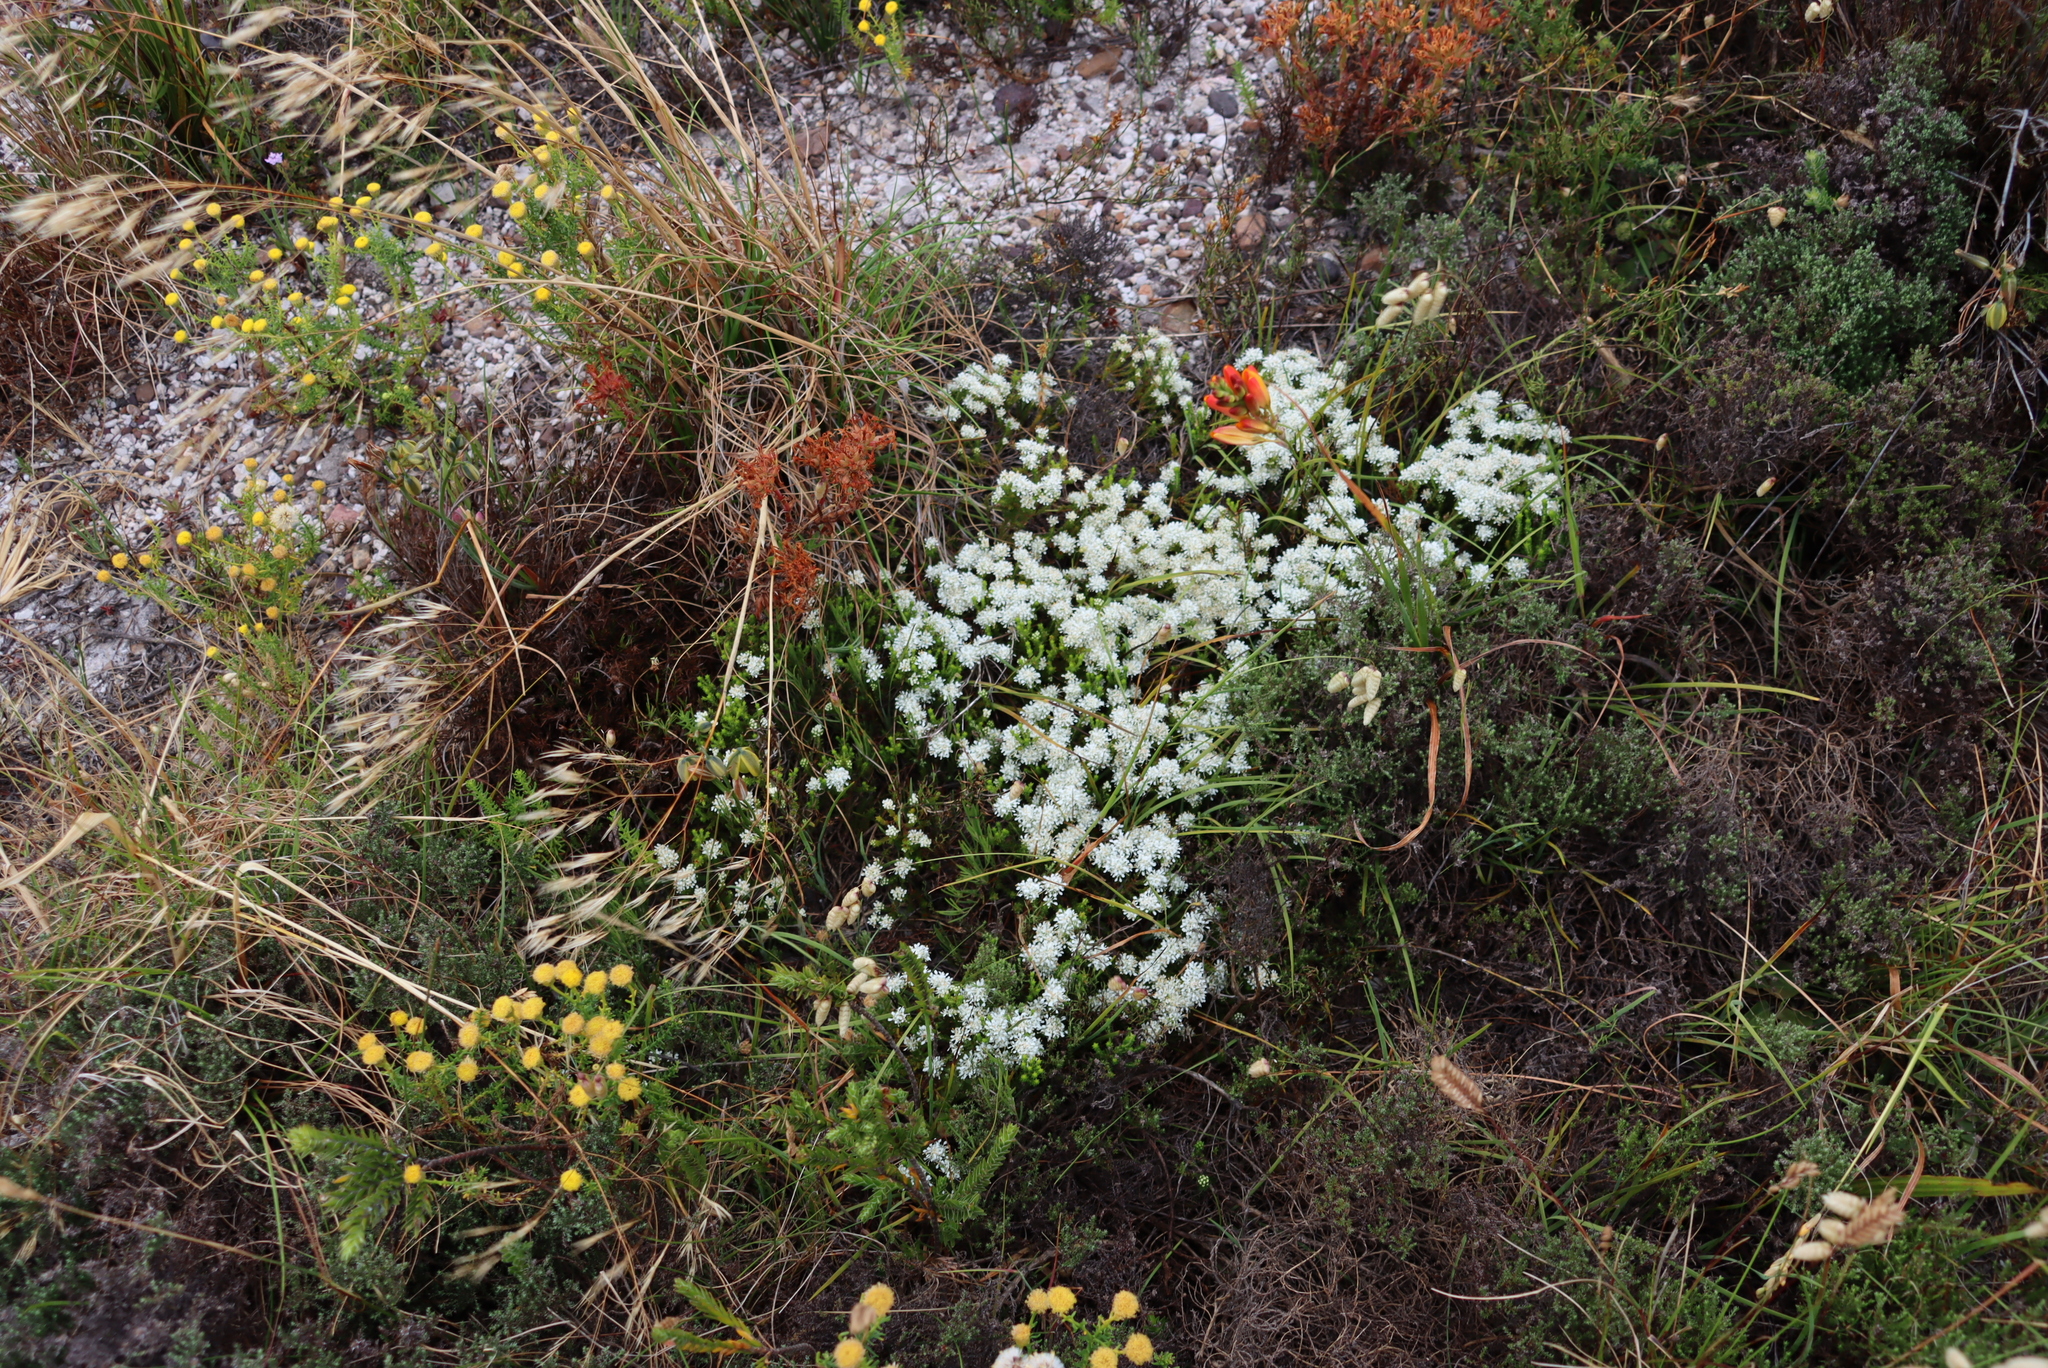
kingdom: Plantae
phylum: Tracheophyta
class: Magnoliopsida
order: Sapindales
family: Rutaceae
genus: Agathosma
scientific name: Agathosma imbricata
